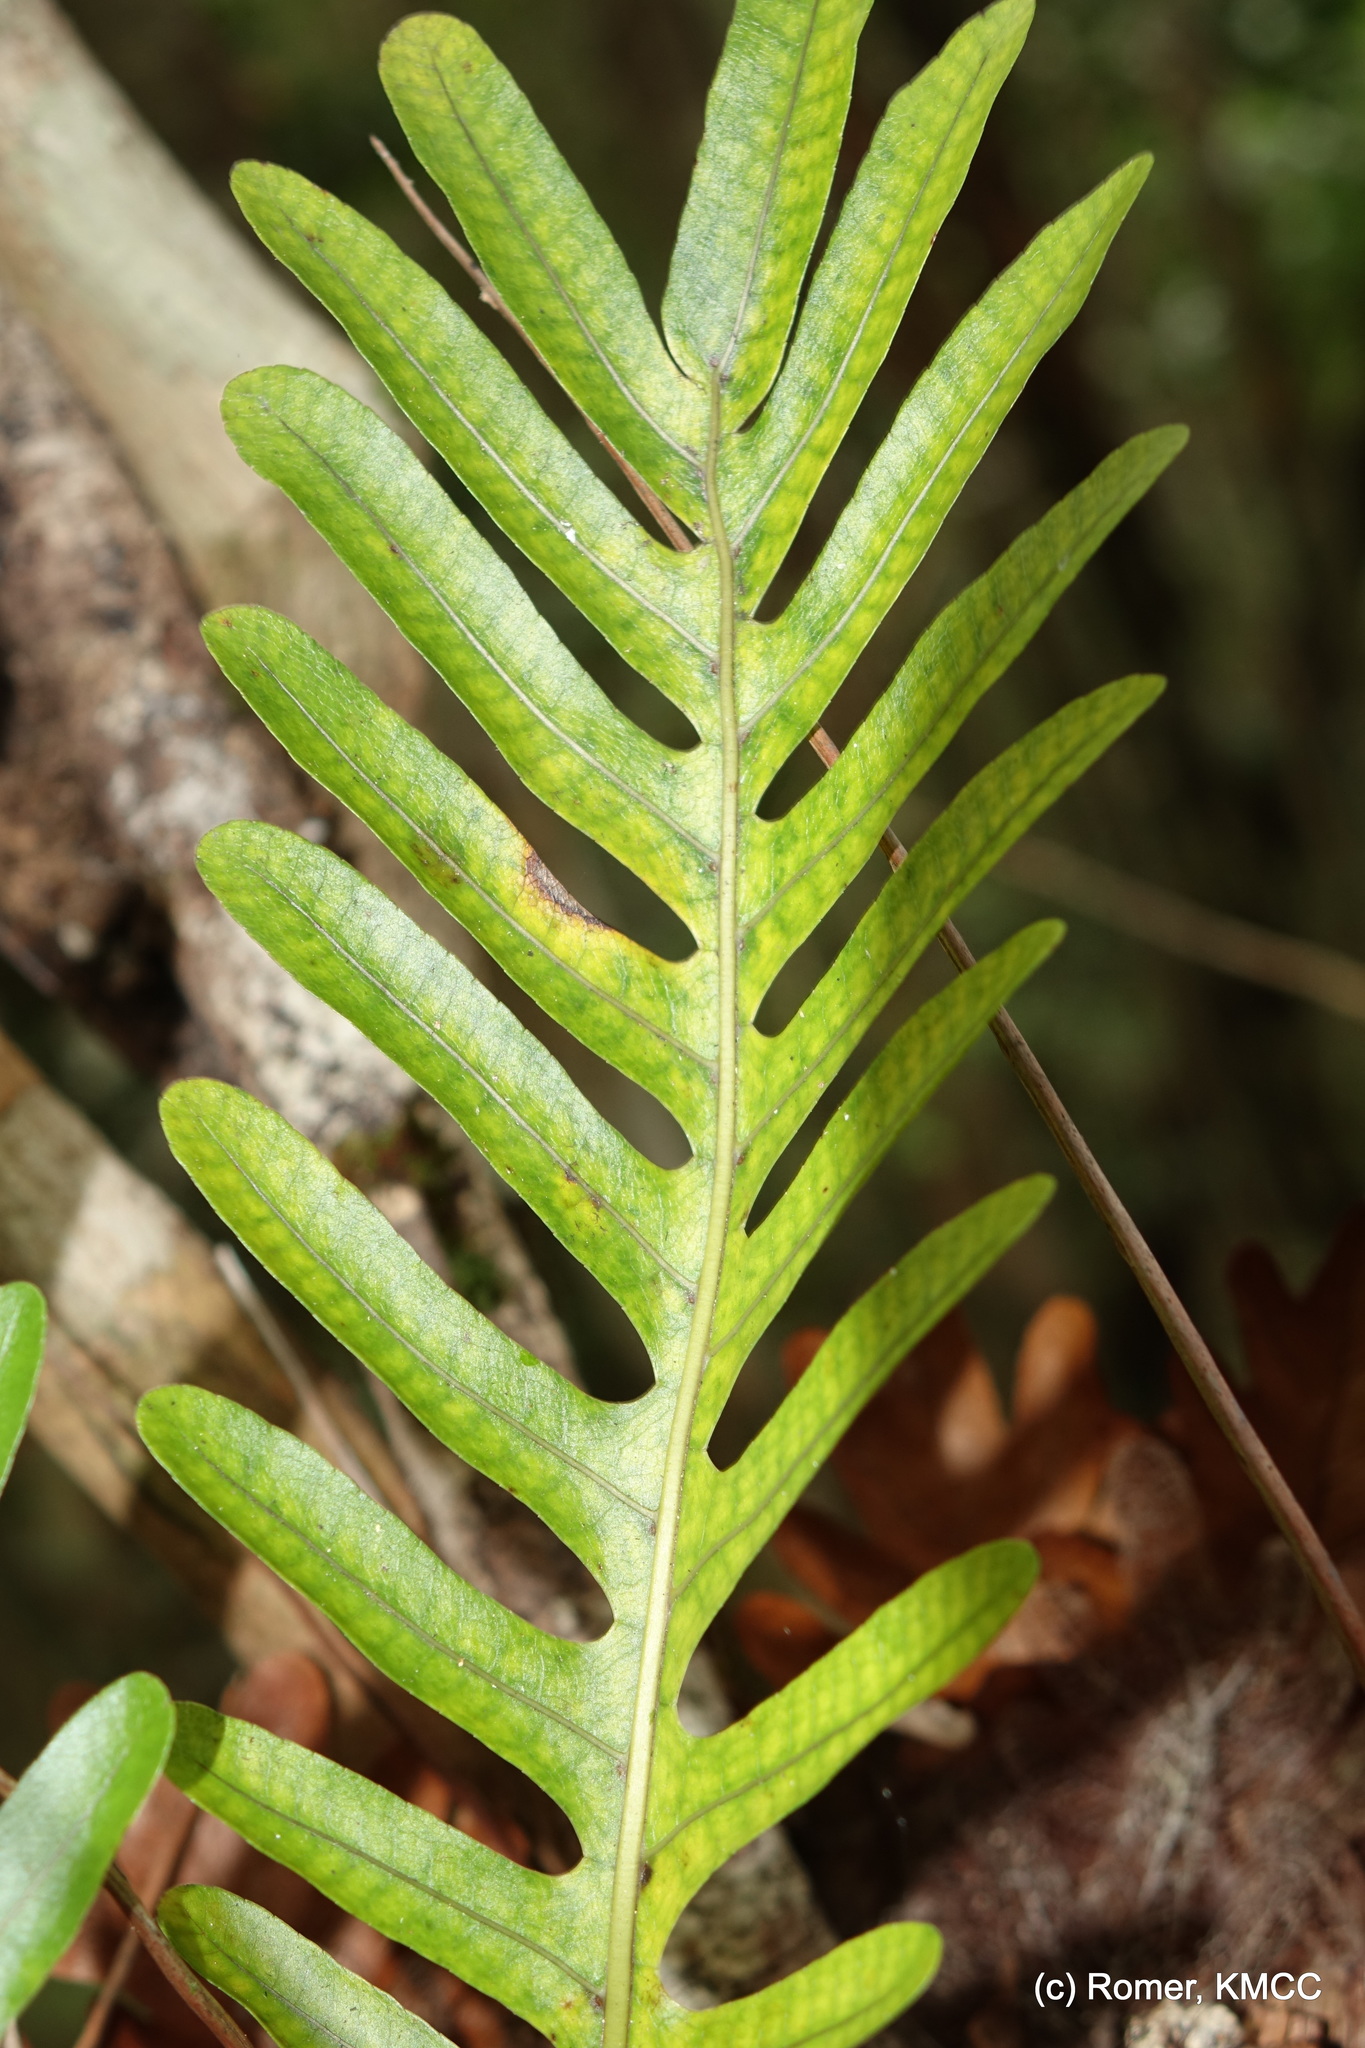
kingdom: Plantae
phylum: Tracheophyta
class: Polypodiopsida
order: Polypodiales
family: Polypodiaceae
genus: Drynaria
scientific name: Drynaria willdenowii
